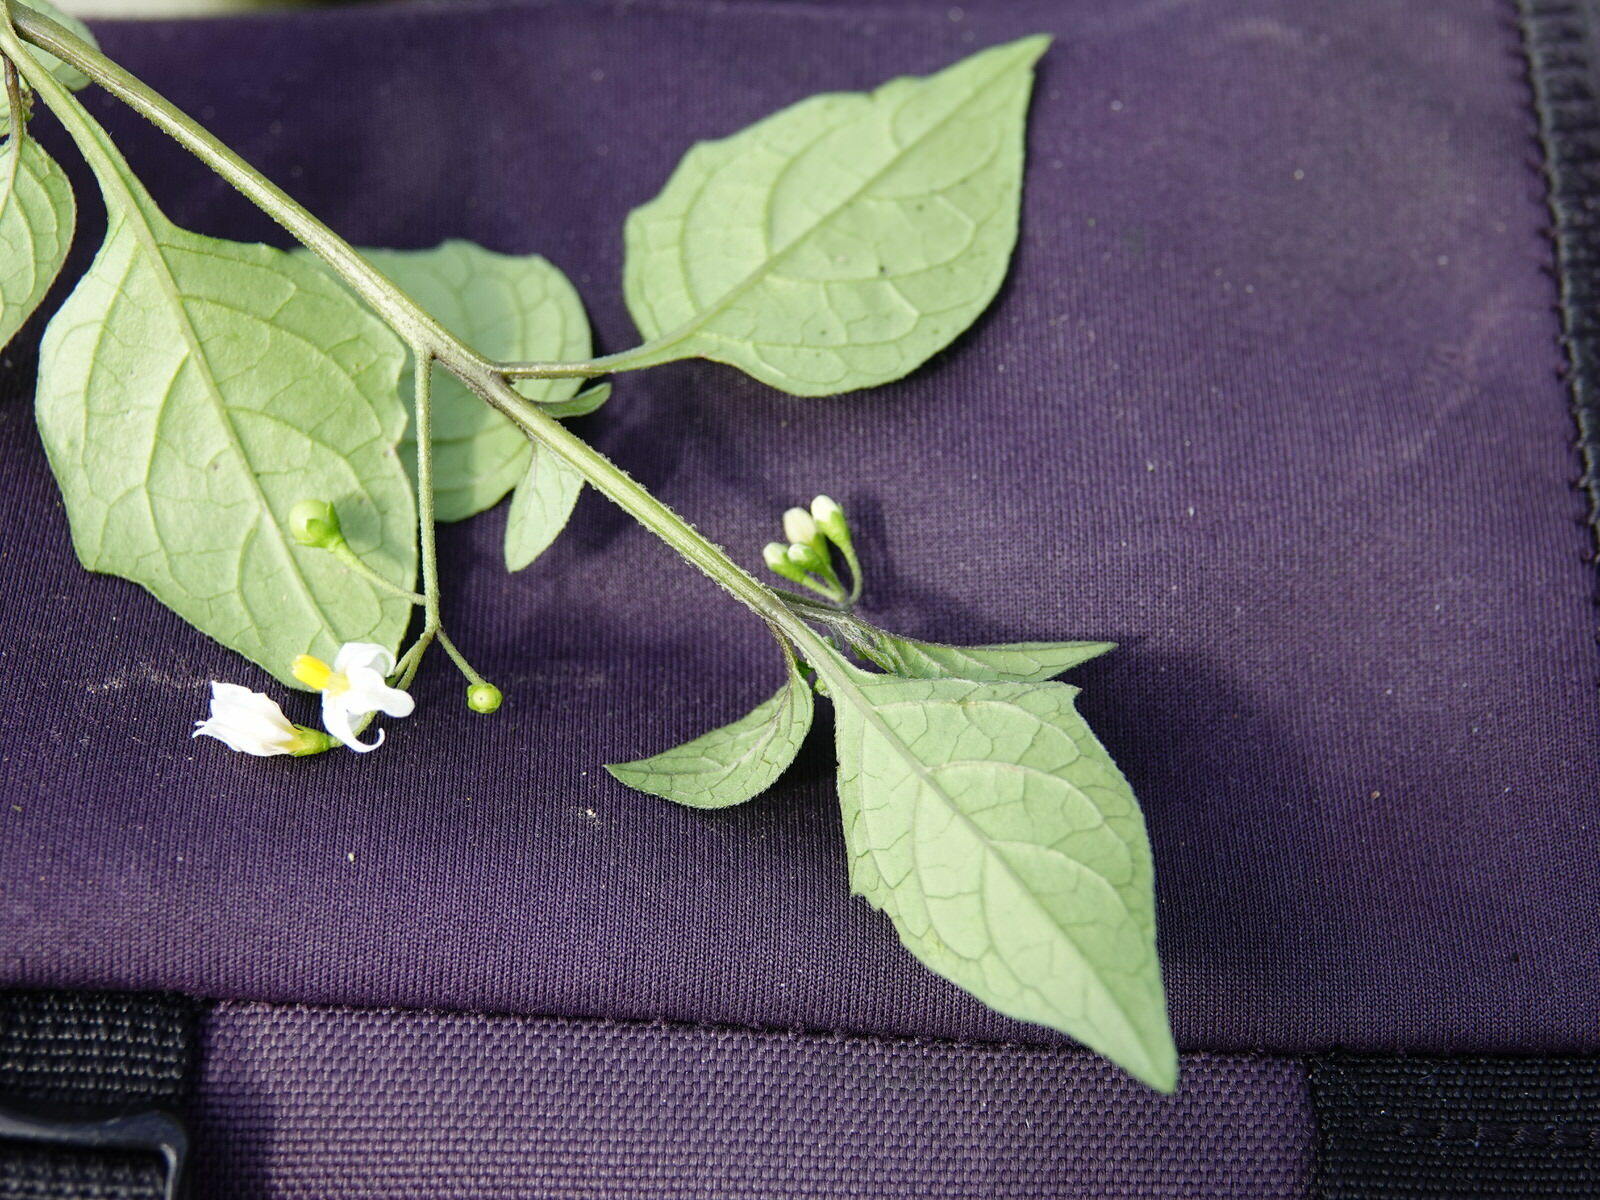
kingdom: Plantae
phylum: Tracheophyta
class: Magnoliopsida
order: Solanales
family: Solanaceae
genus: Solanum
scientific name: Solanum nigrum
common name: Black nightshade
